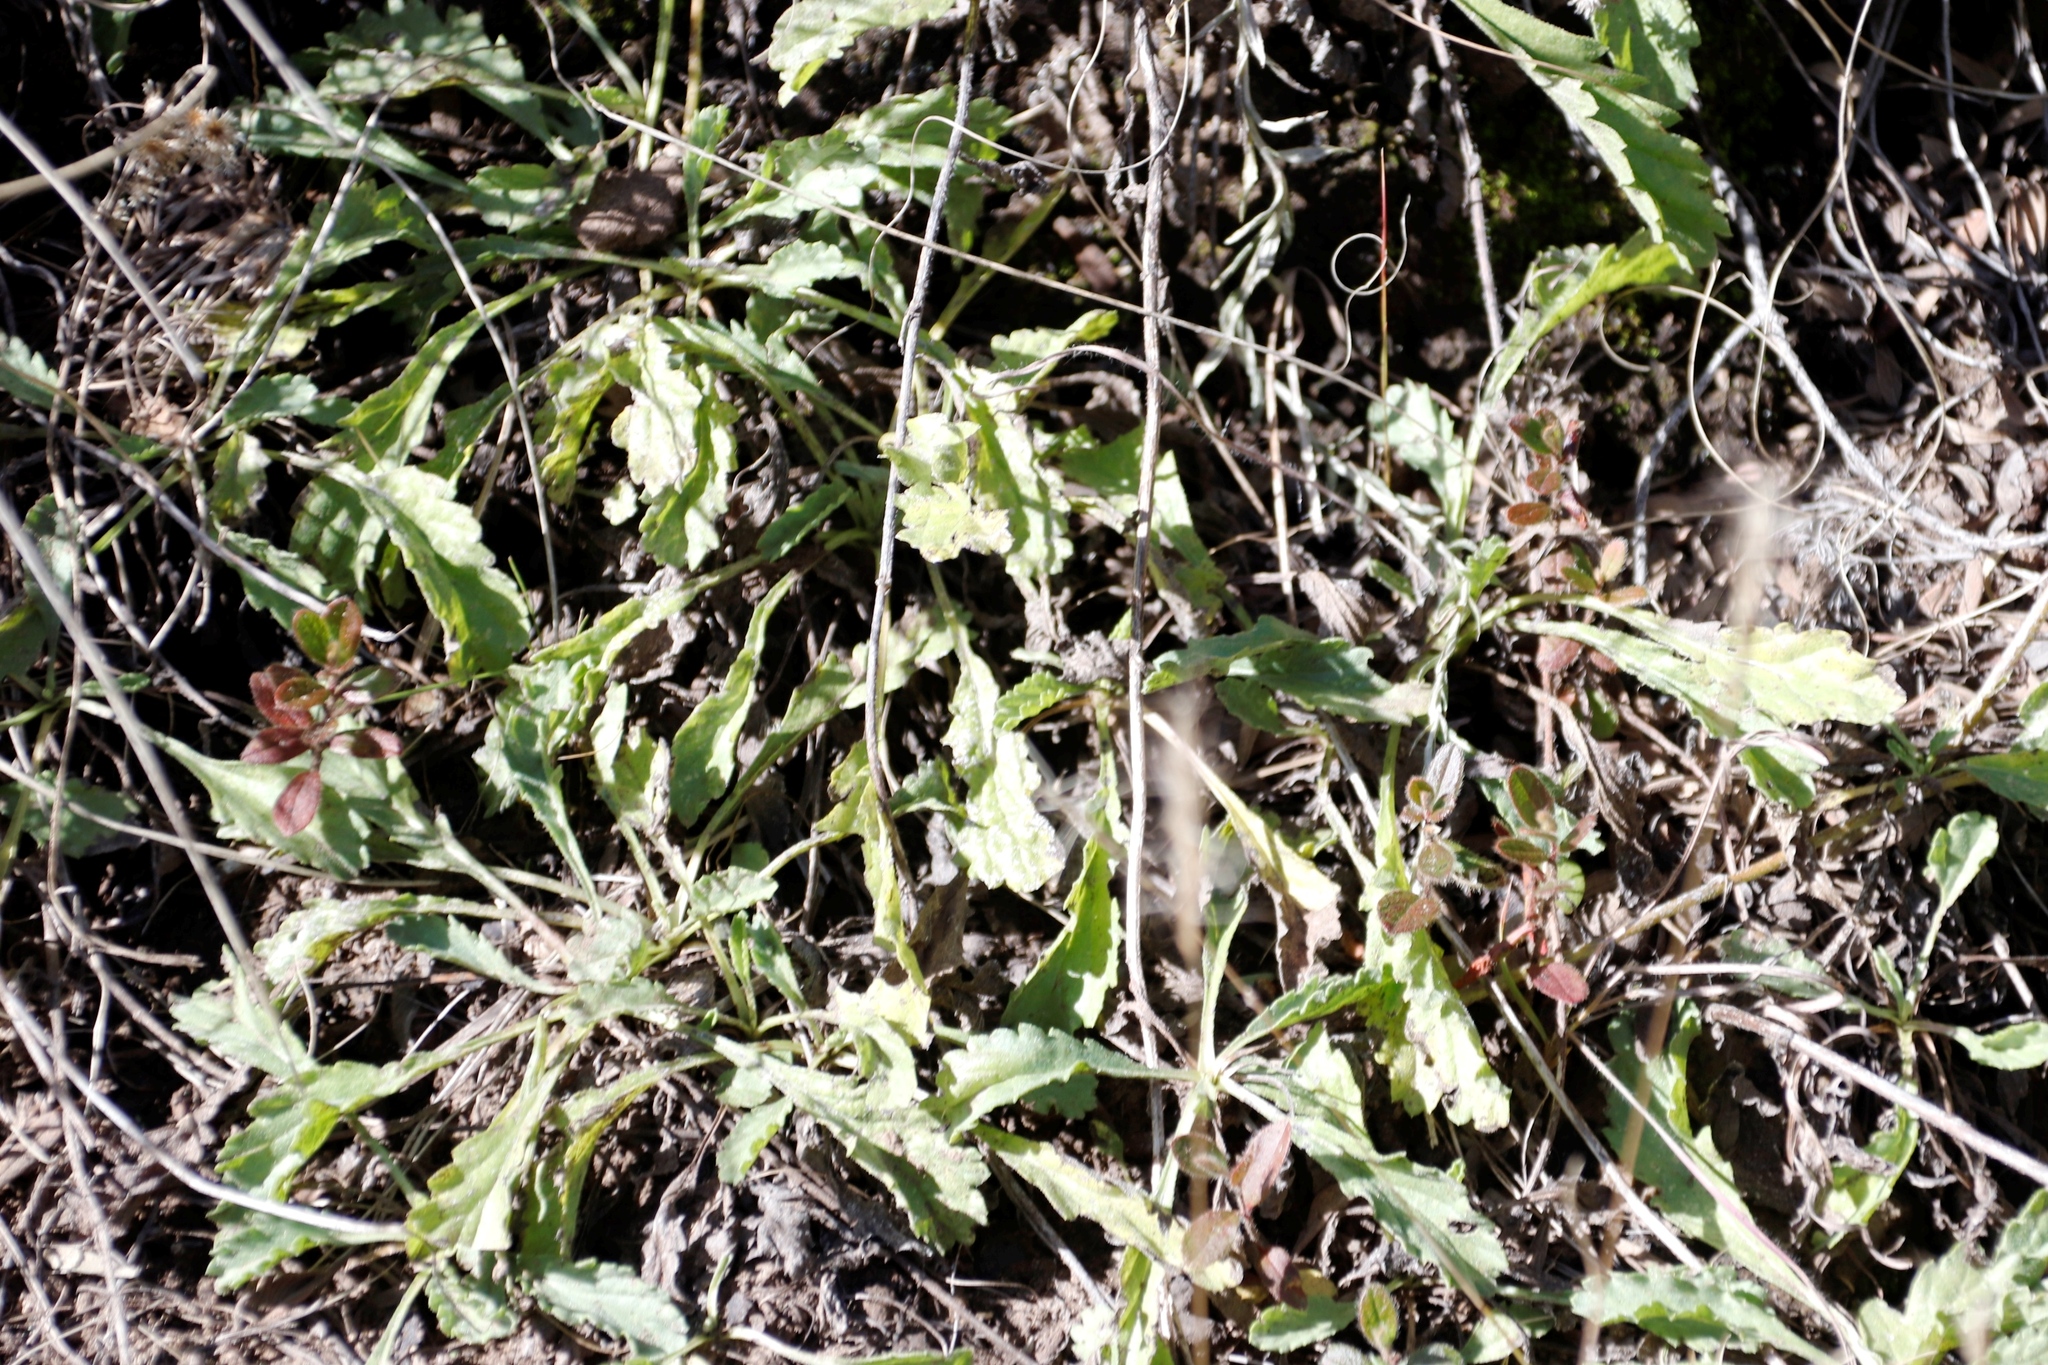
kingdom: Plantae
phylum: Tracheophyta
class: Magnoliopsida
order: Asterales
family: Asteraceae
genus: Nidorella
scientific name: Nidorella podocephala
